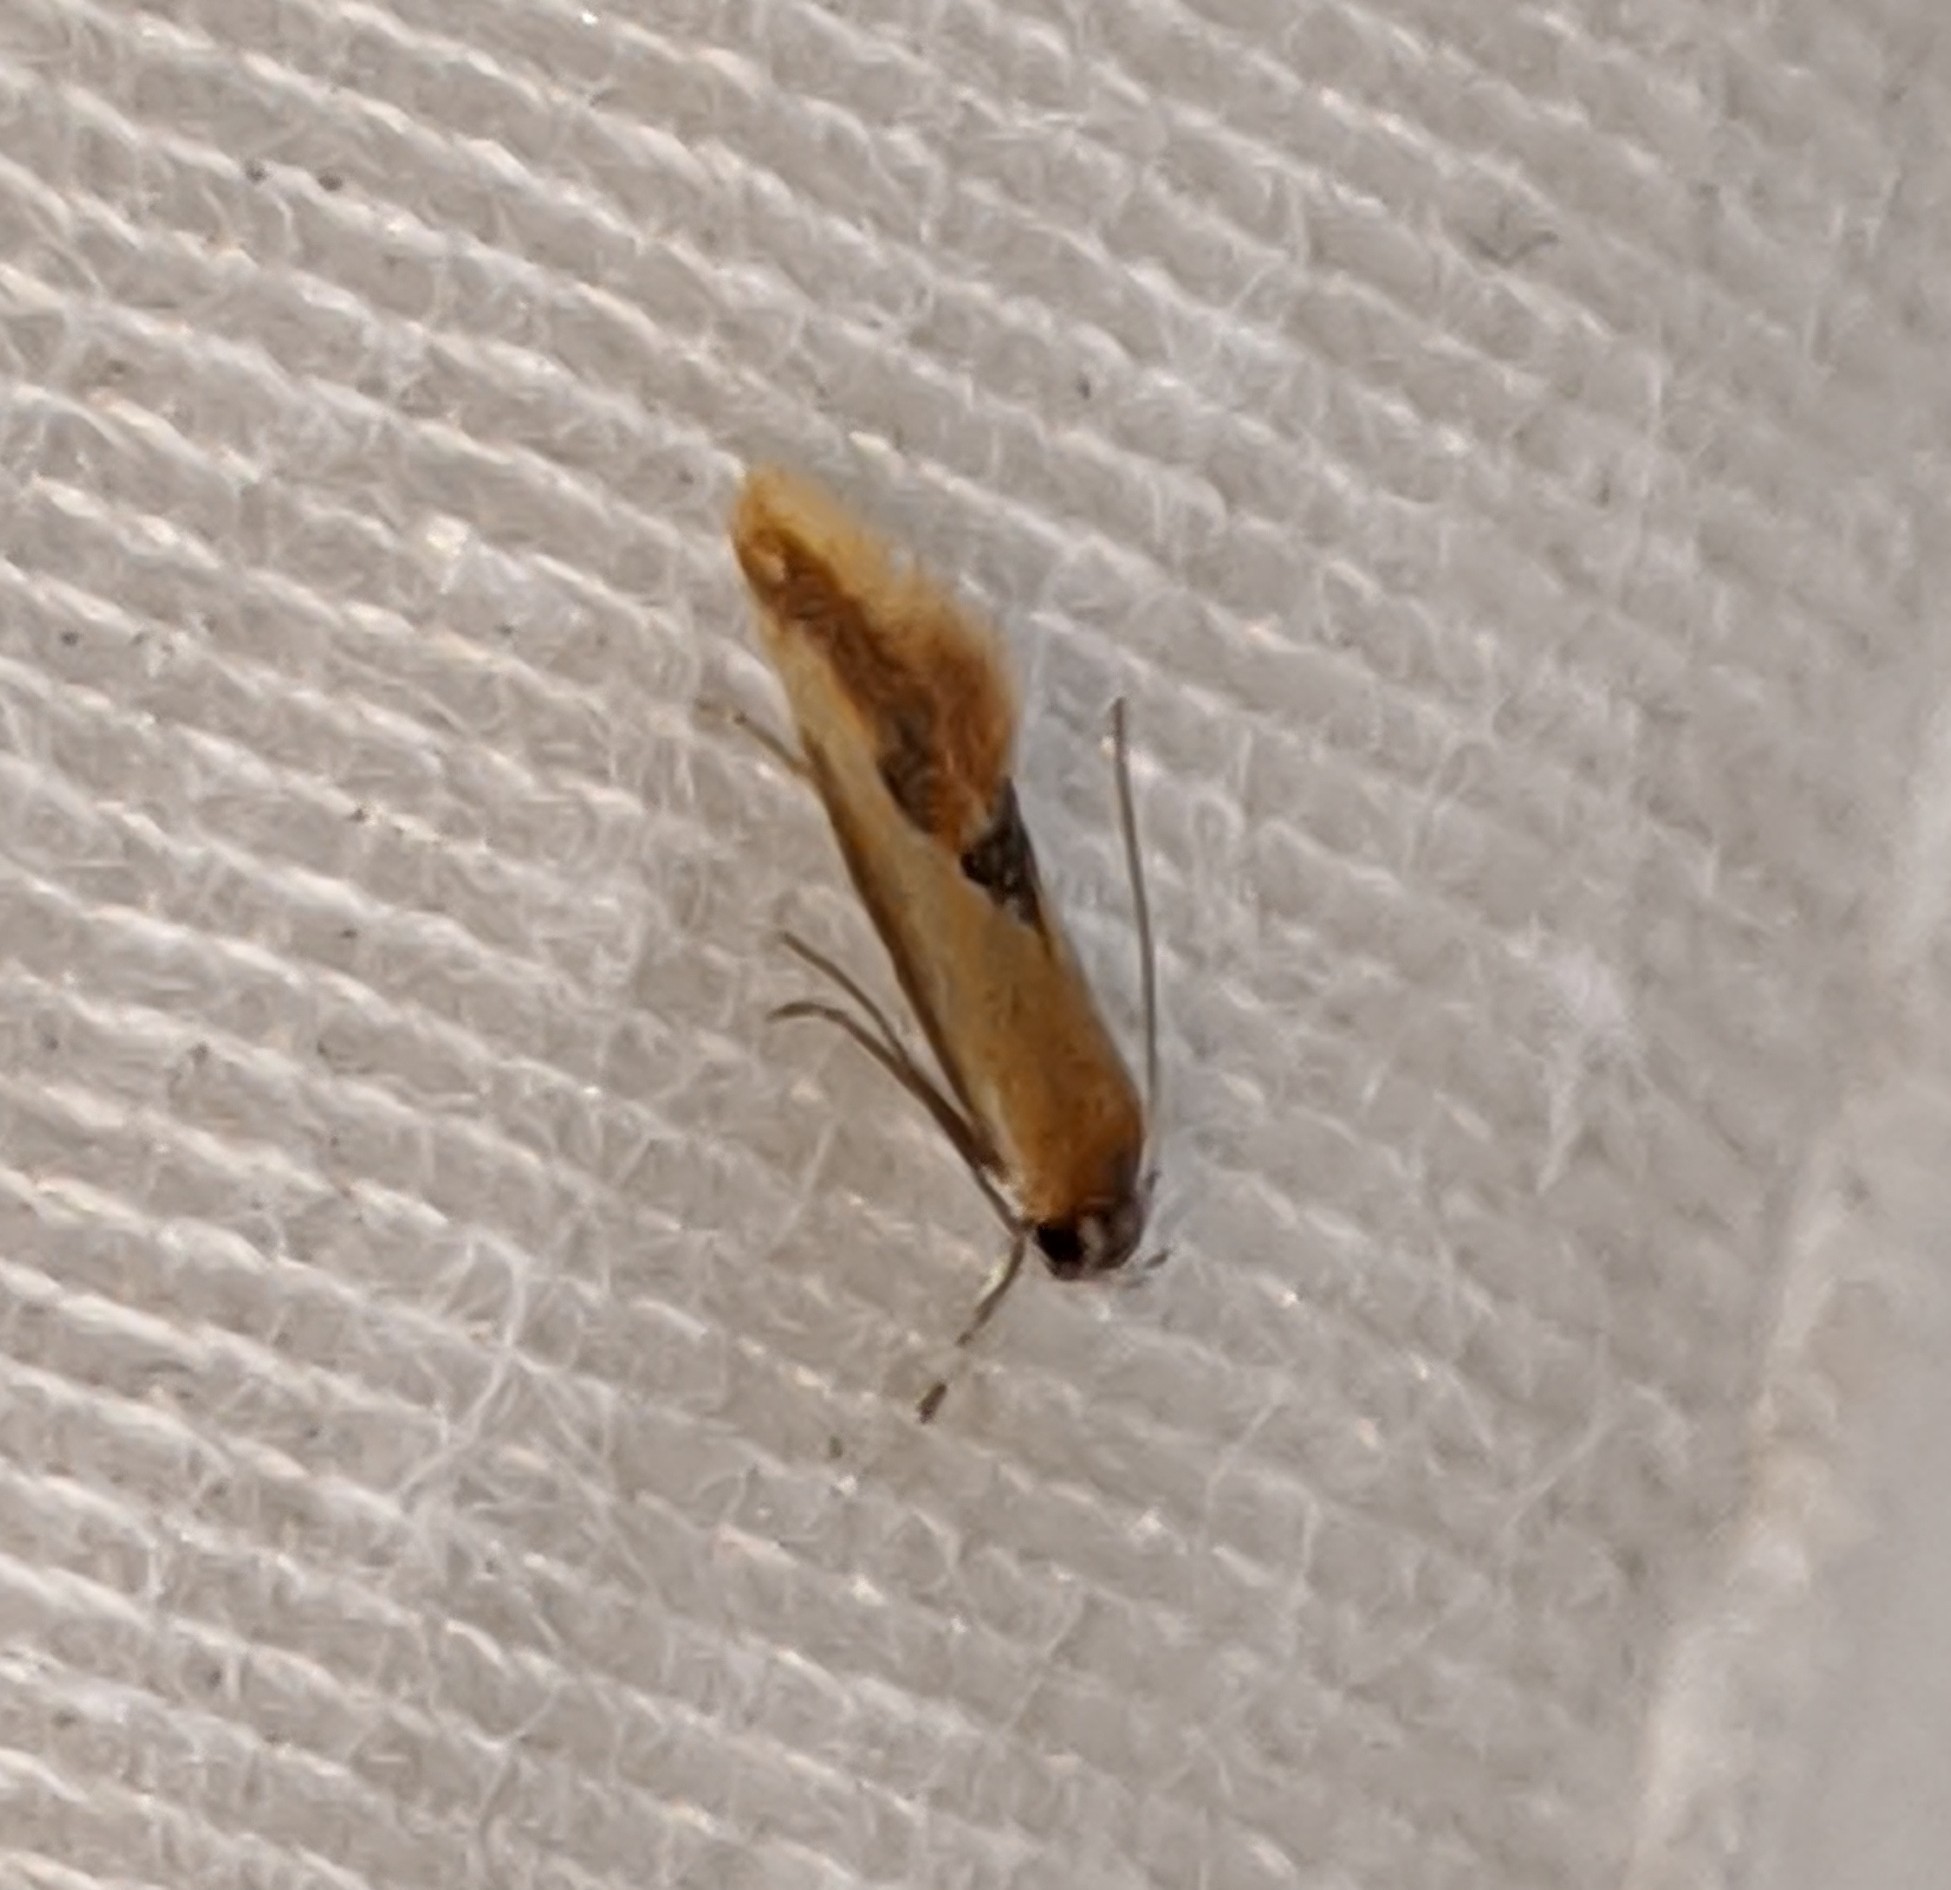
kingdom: Animalia
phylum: Arthropoda
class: Insecta
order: Lepidoptera
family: Oecophoridae
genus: Batia
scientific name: Batia lunaris
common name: Moth
